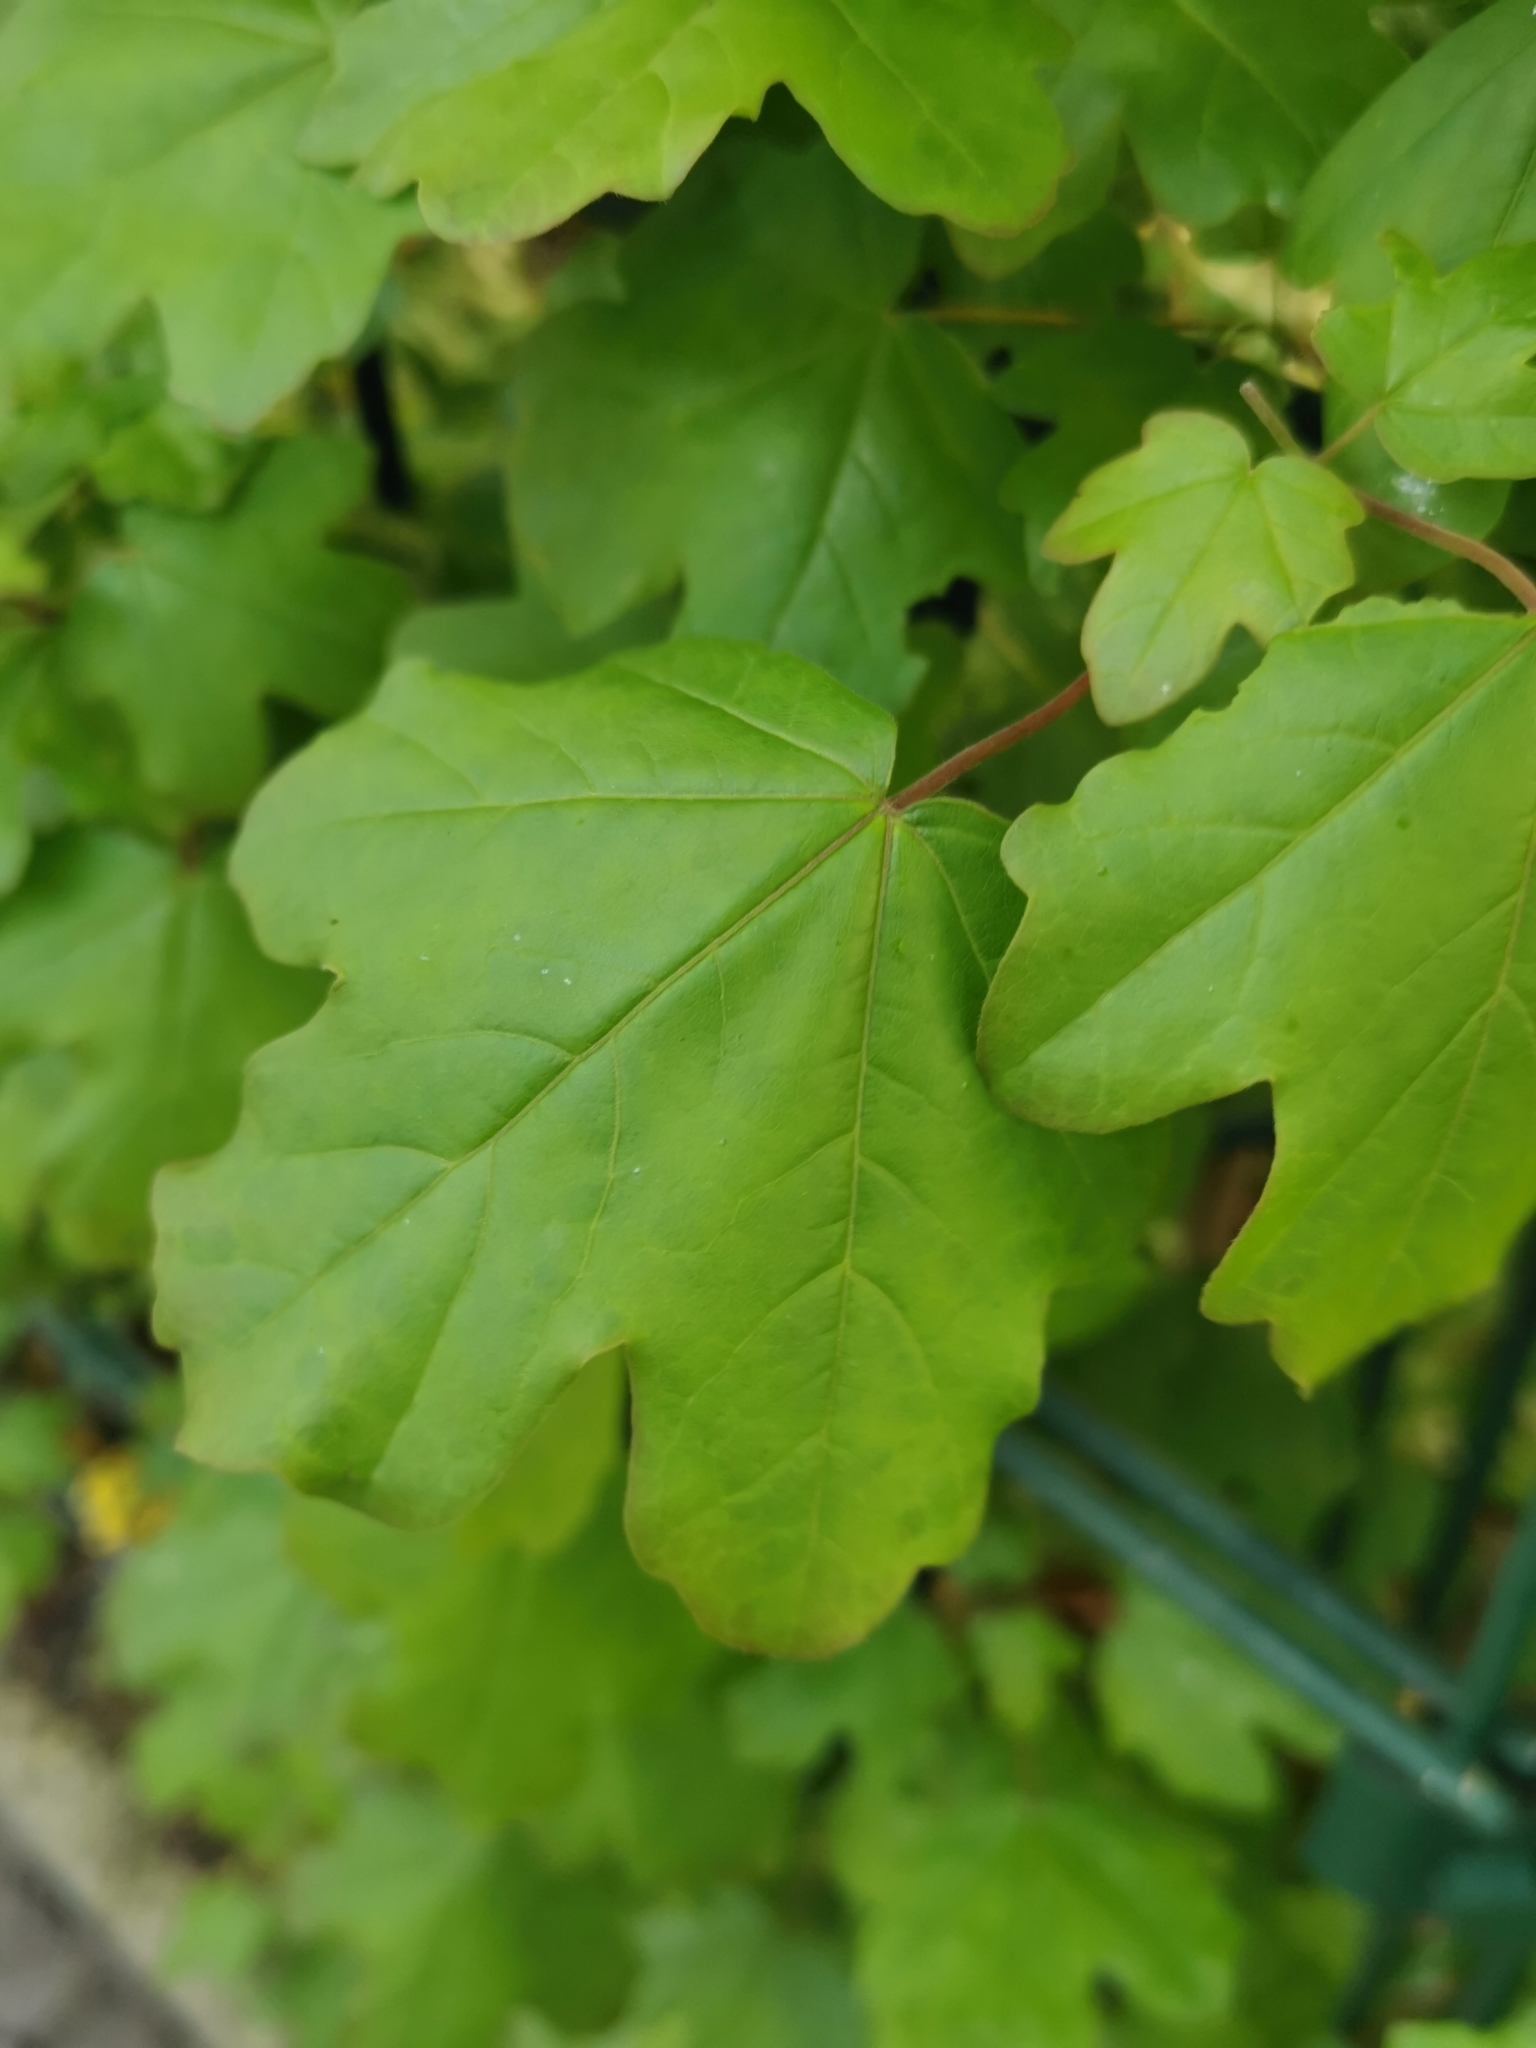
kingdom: Plantae
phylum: Tracheophyta
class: Magnoliopsida
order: Sapindales
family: Sapindaceae
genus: Acer
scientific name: Acer campestre
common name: Field maple
